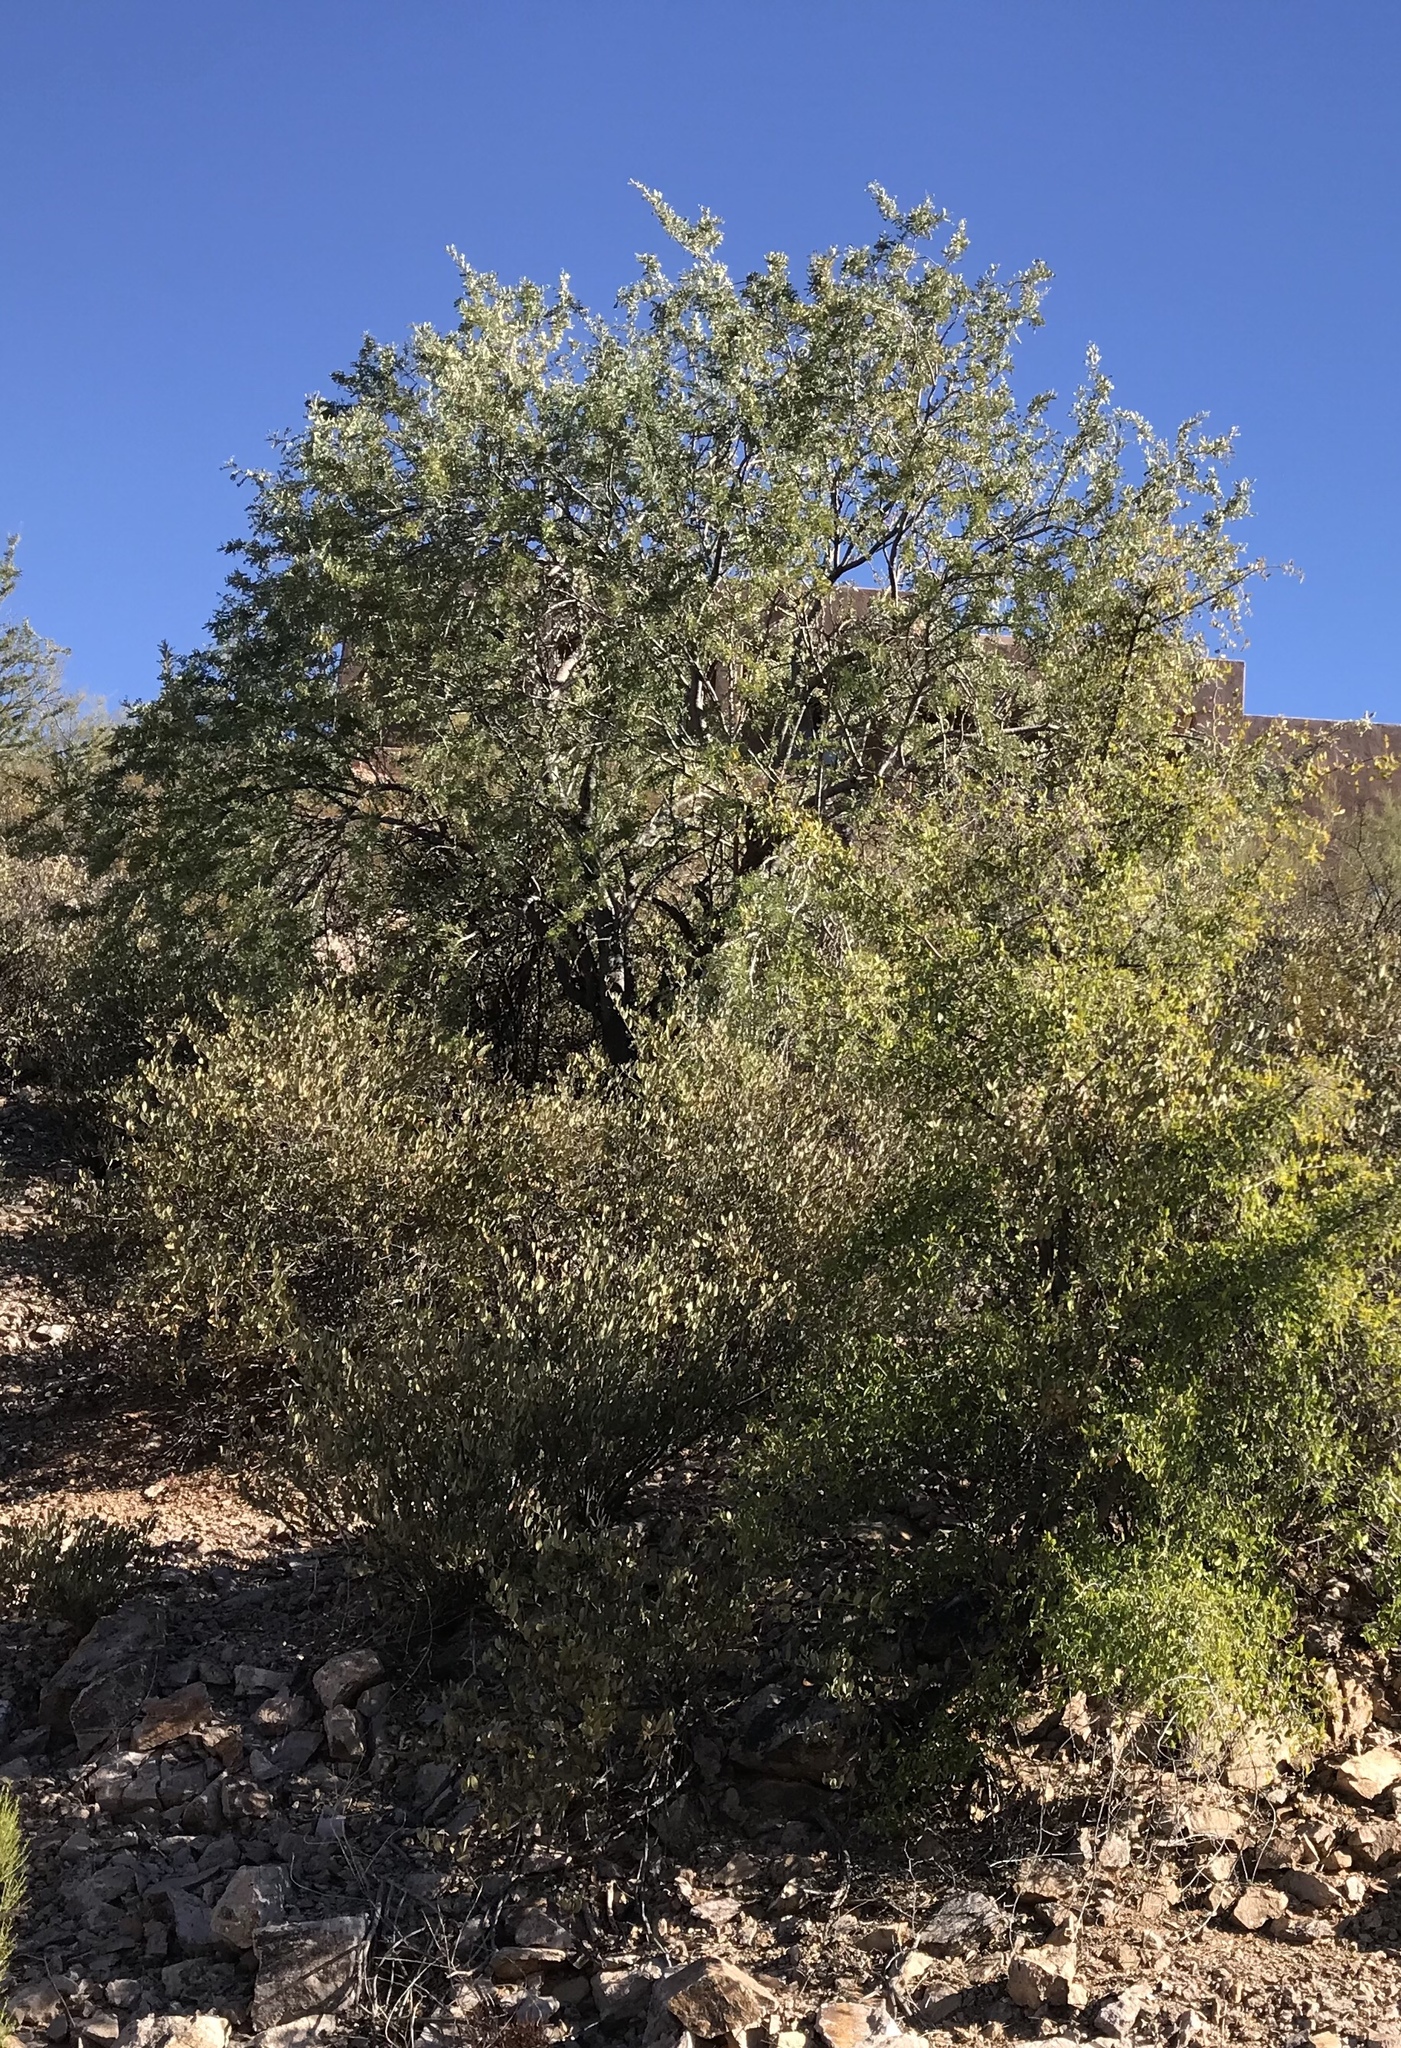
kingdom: Plantae
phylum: Tracheophyta
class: Magnoliopsida
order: Rosales
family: Cannabaceae
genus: Celtis
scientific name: Celtis pallida
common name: Desert hackberry
